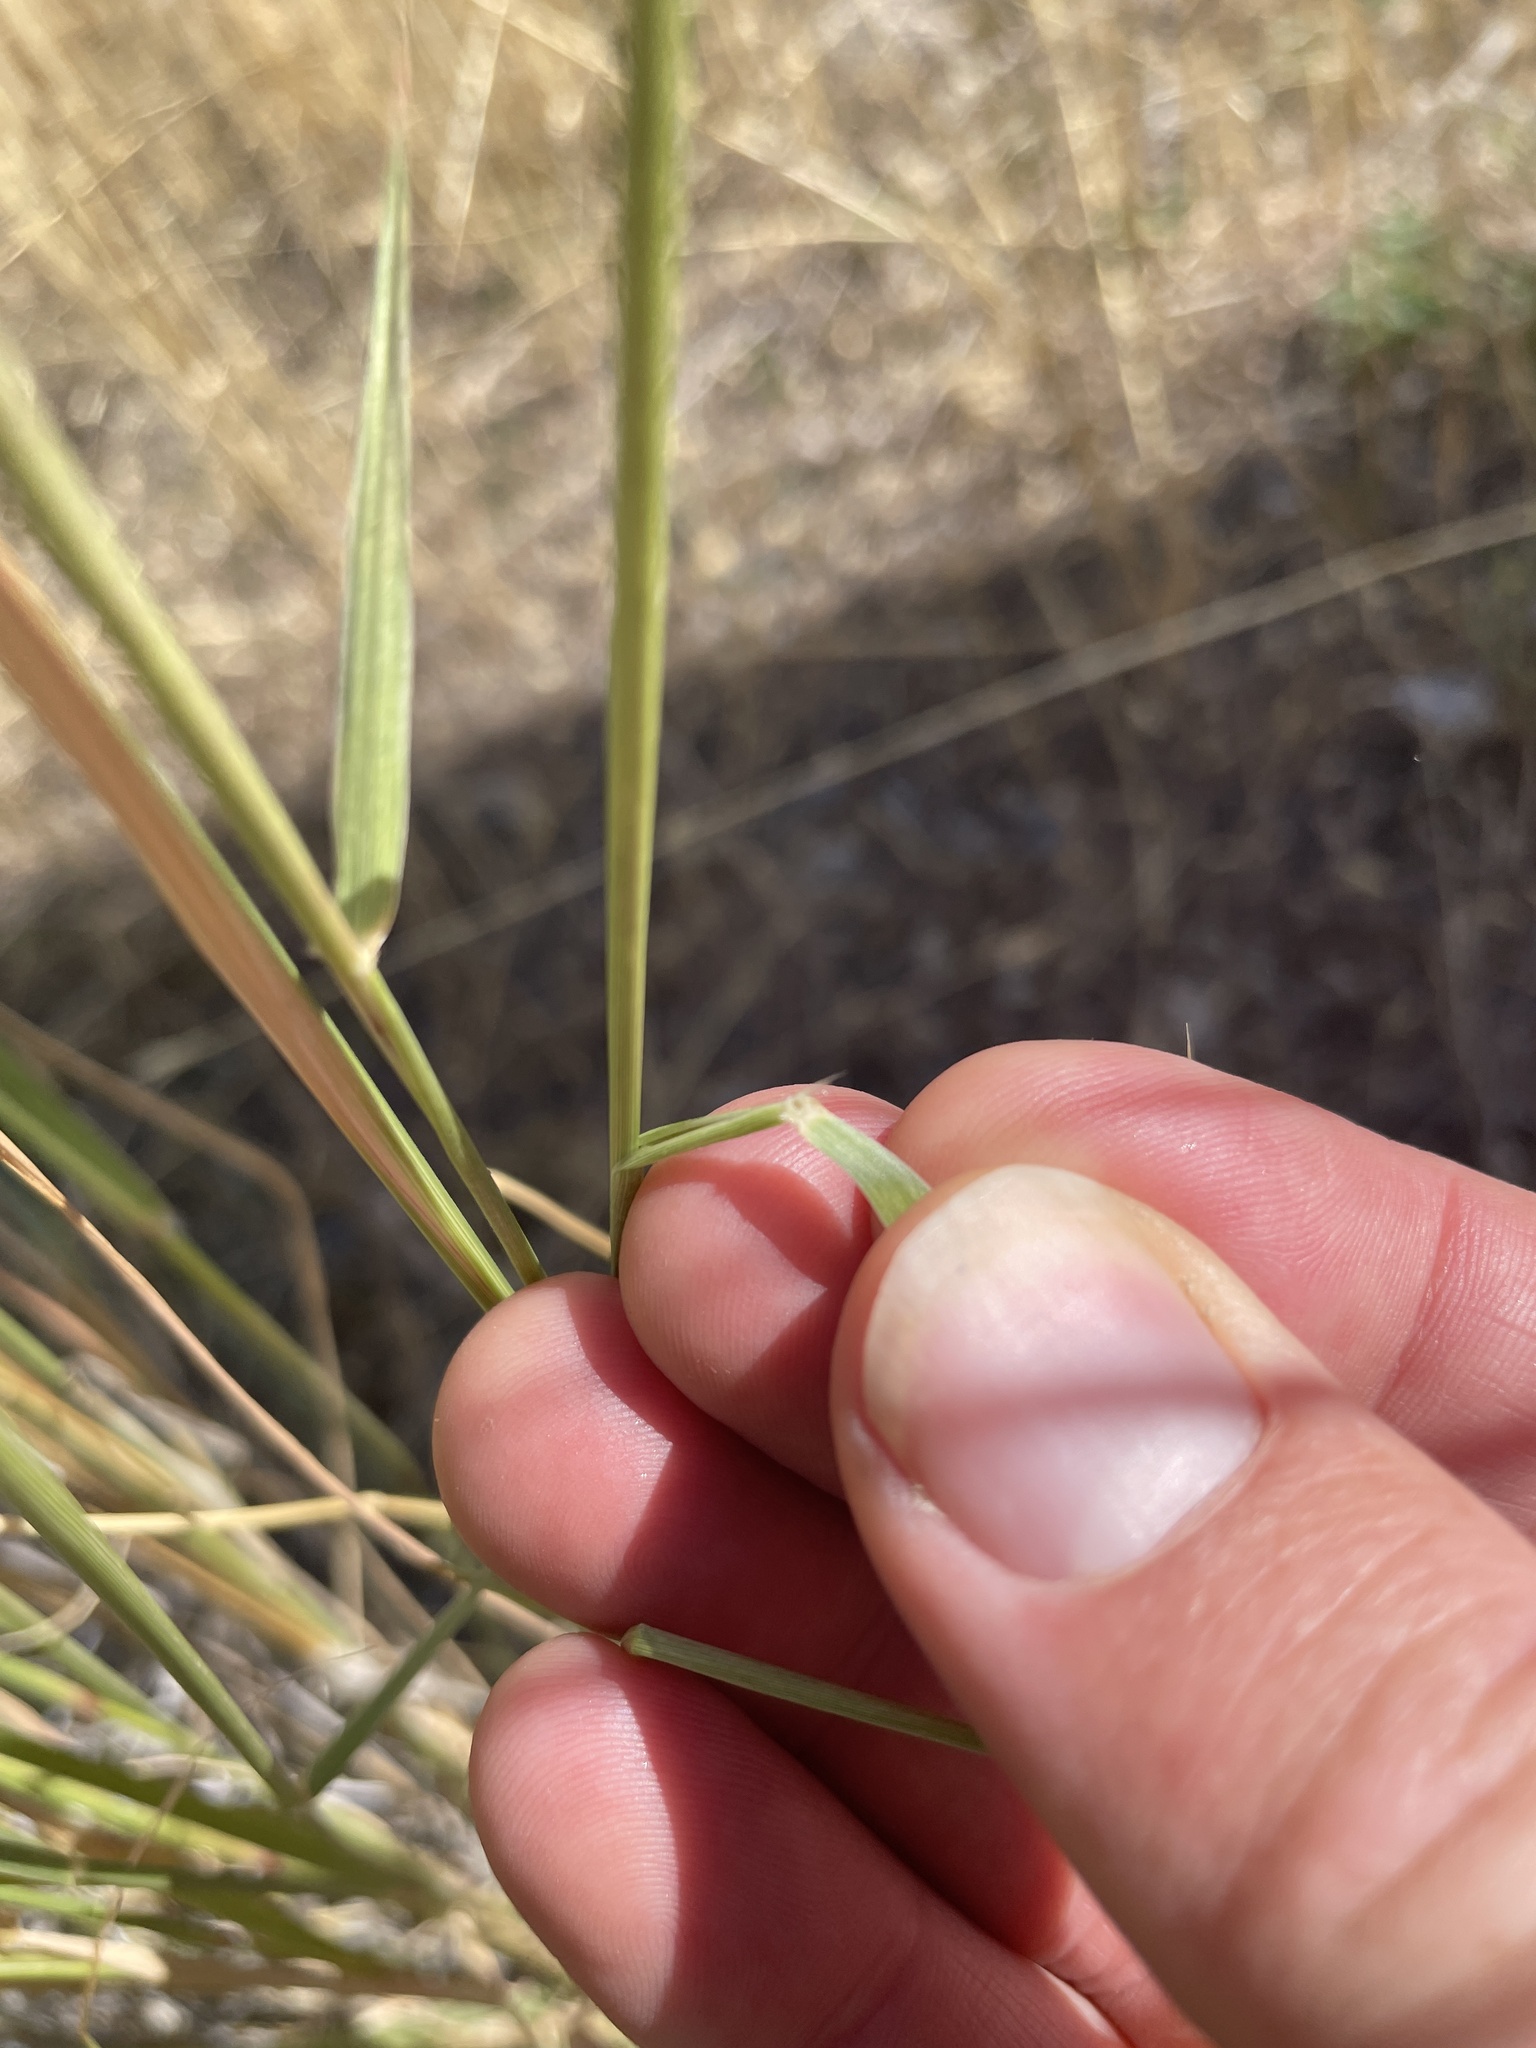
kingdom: Plantae
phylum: Tracheophyta
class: Liliopsida
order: Poales
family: Poaceae
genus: Sporobolus
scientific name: Sporobolus cryptandrus
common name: Sand dropseed
